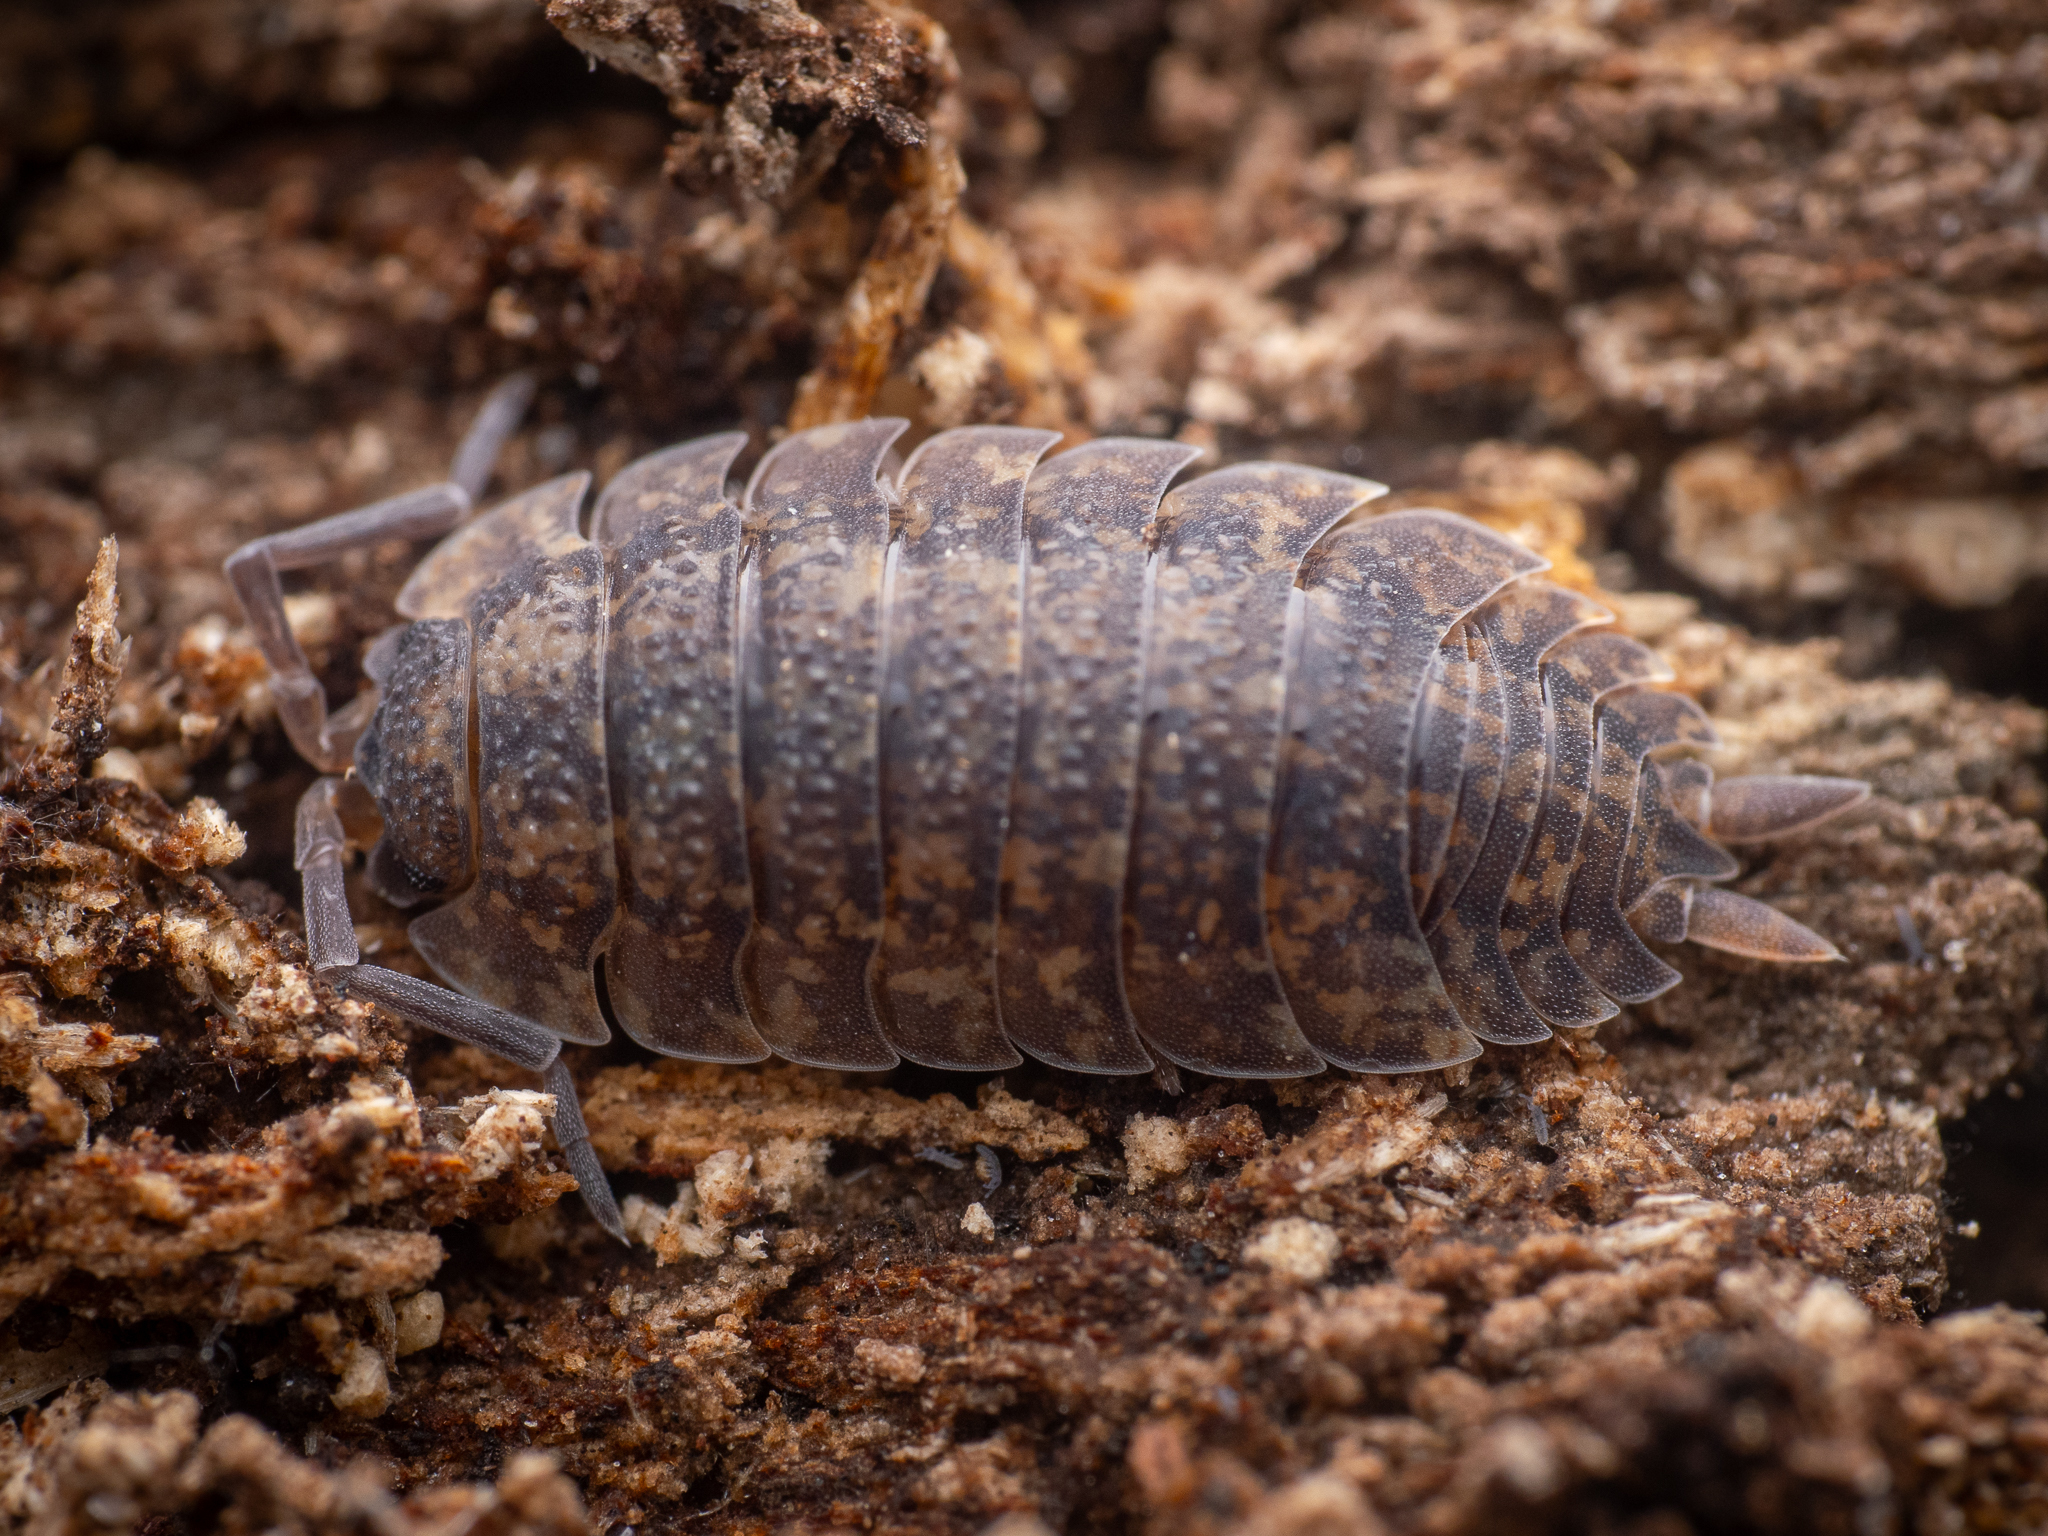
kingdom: Animalia
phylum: Arthropoda
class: Malacostraca
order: Isopoda
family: Porcellionidae
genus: Porcellio
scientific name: Porcellio scaber
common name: Common rough woodlouse
